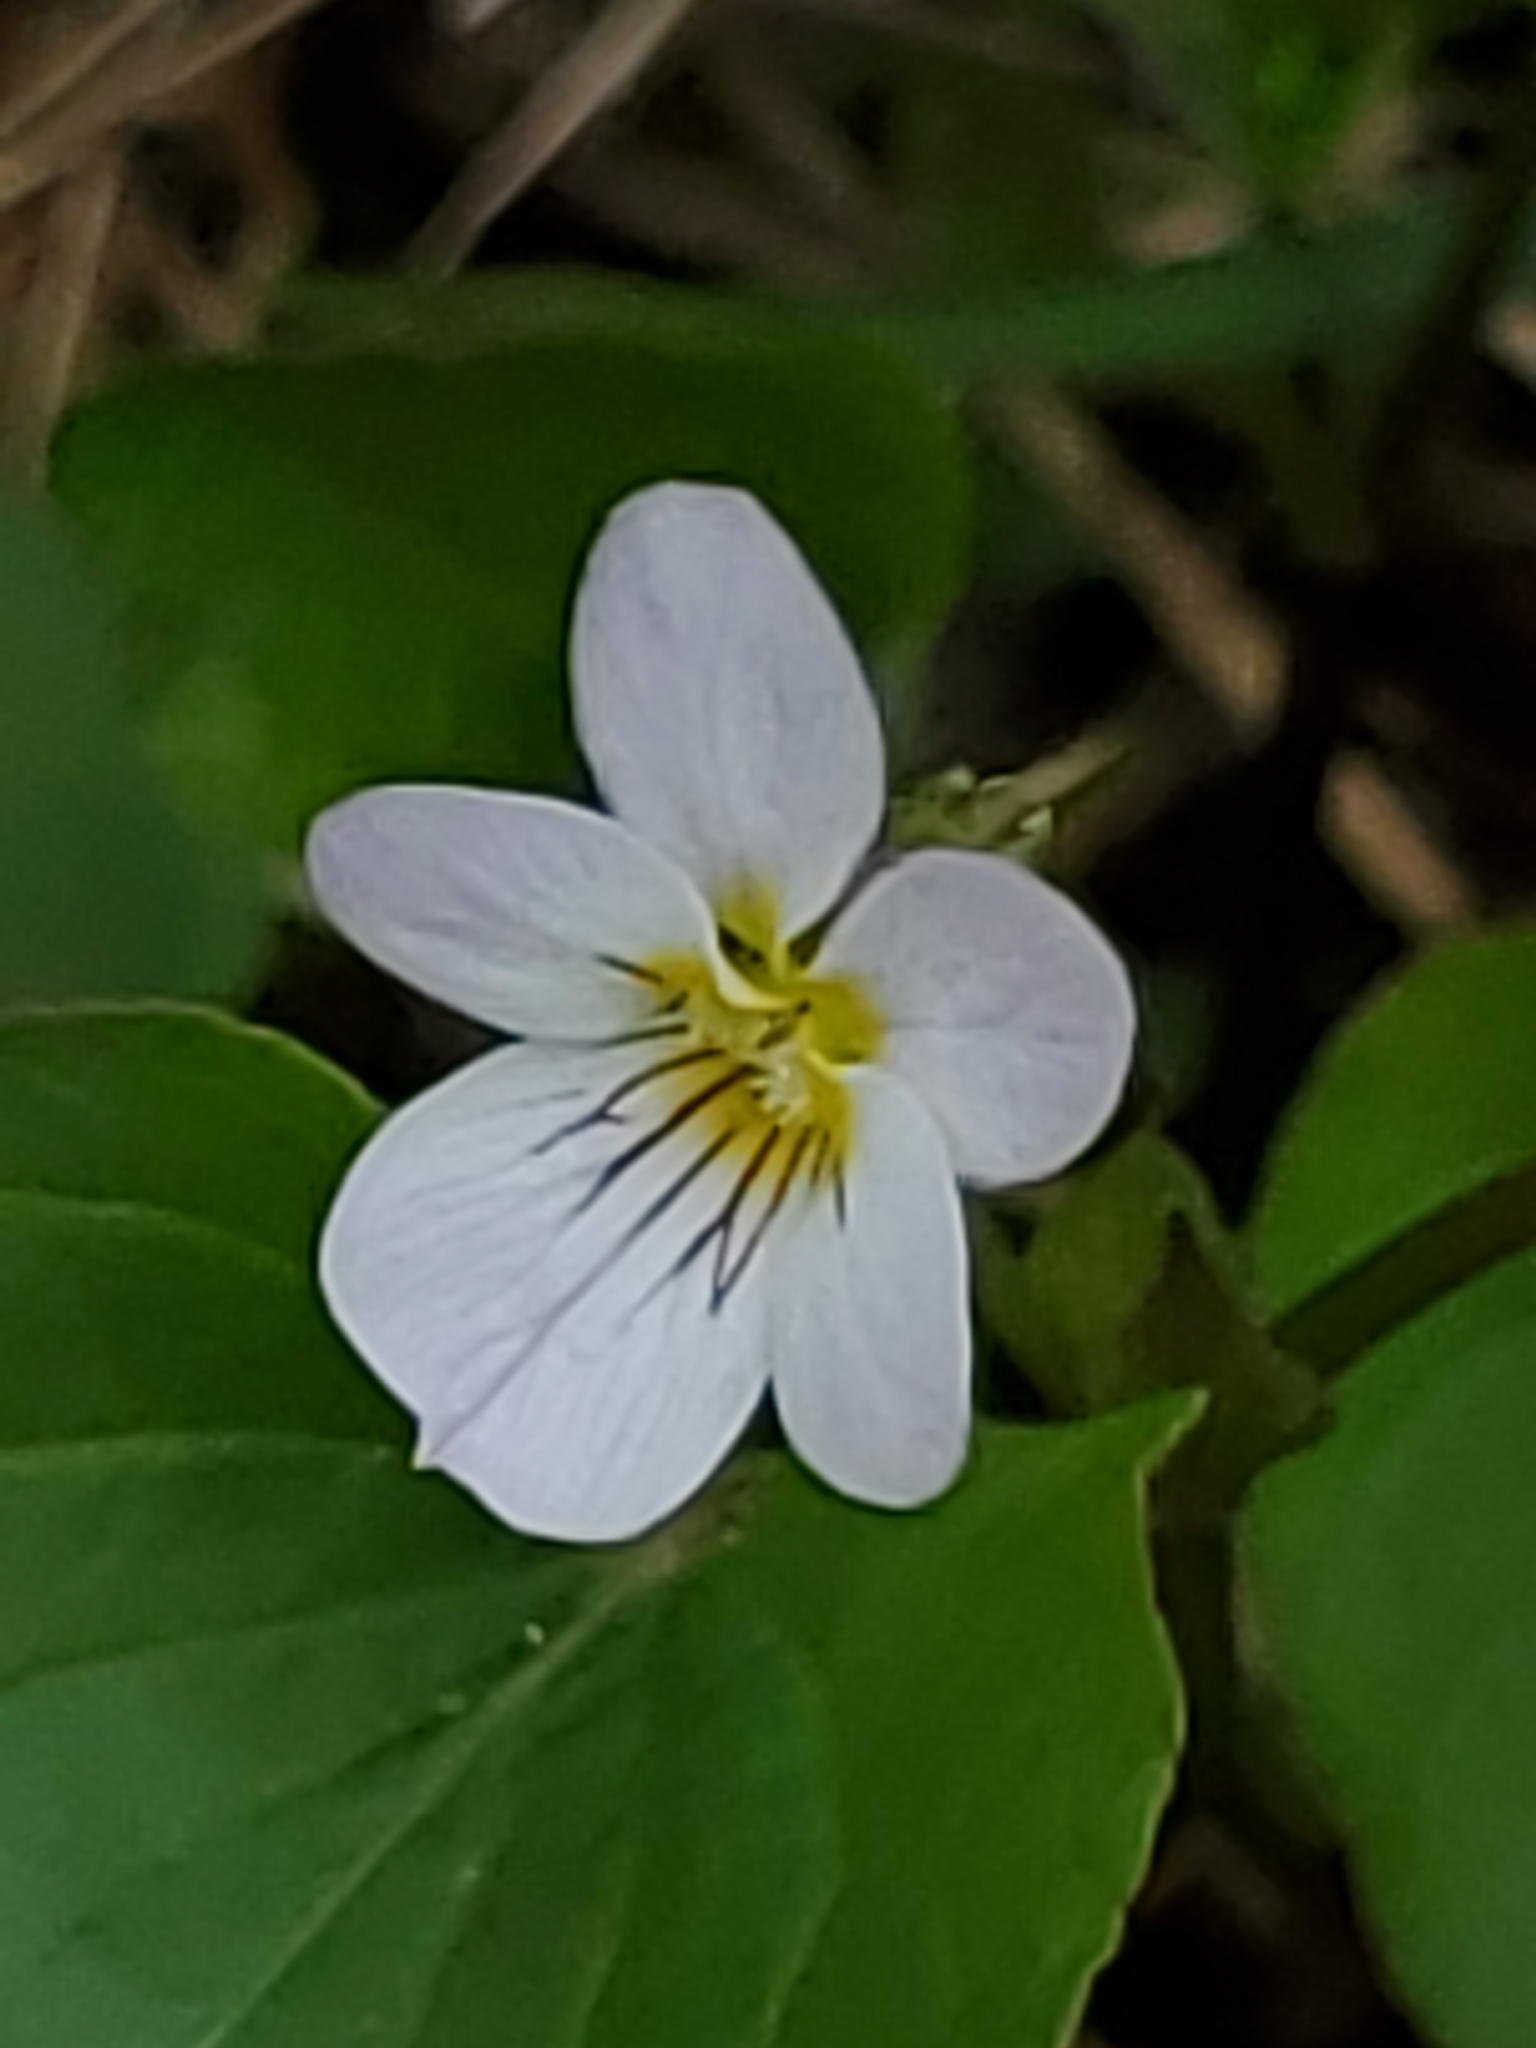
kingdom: Plantae
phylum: Tracheophyta
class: Magnoliopsida
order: Malpighiales
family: Violaceae
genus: Viola
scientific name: Viola canadensis
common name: Canada violet
